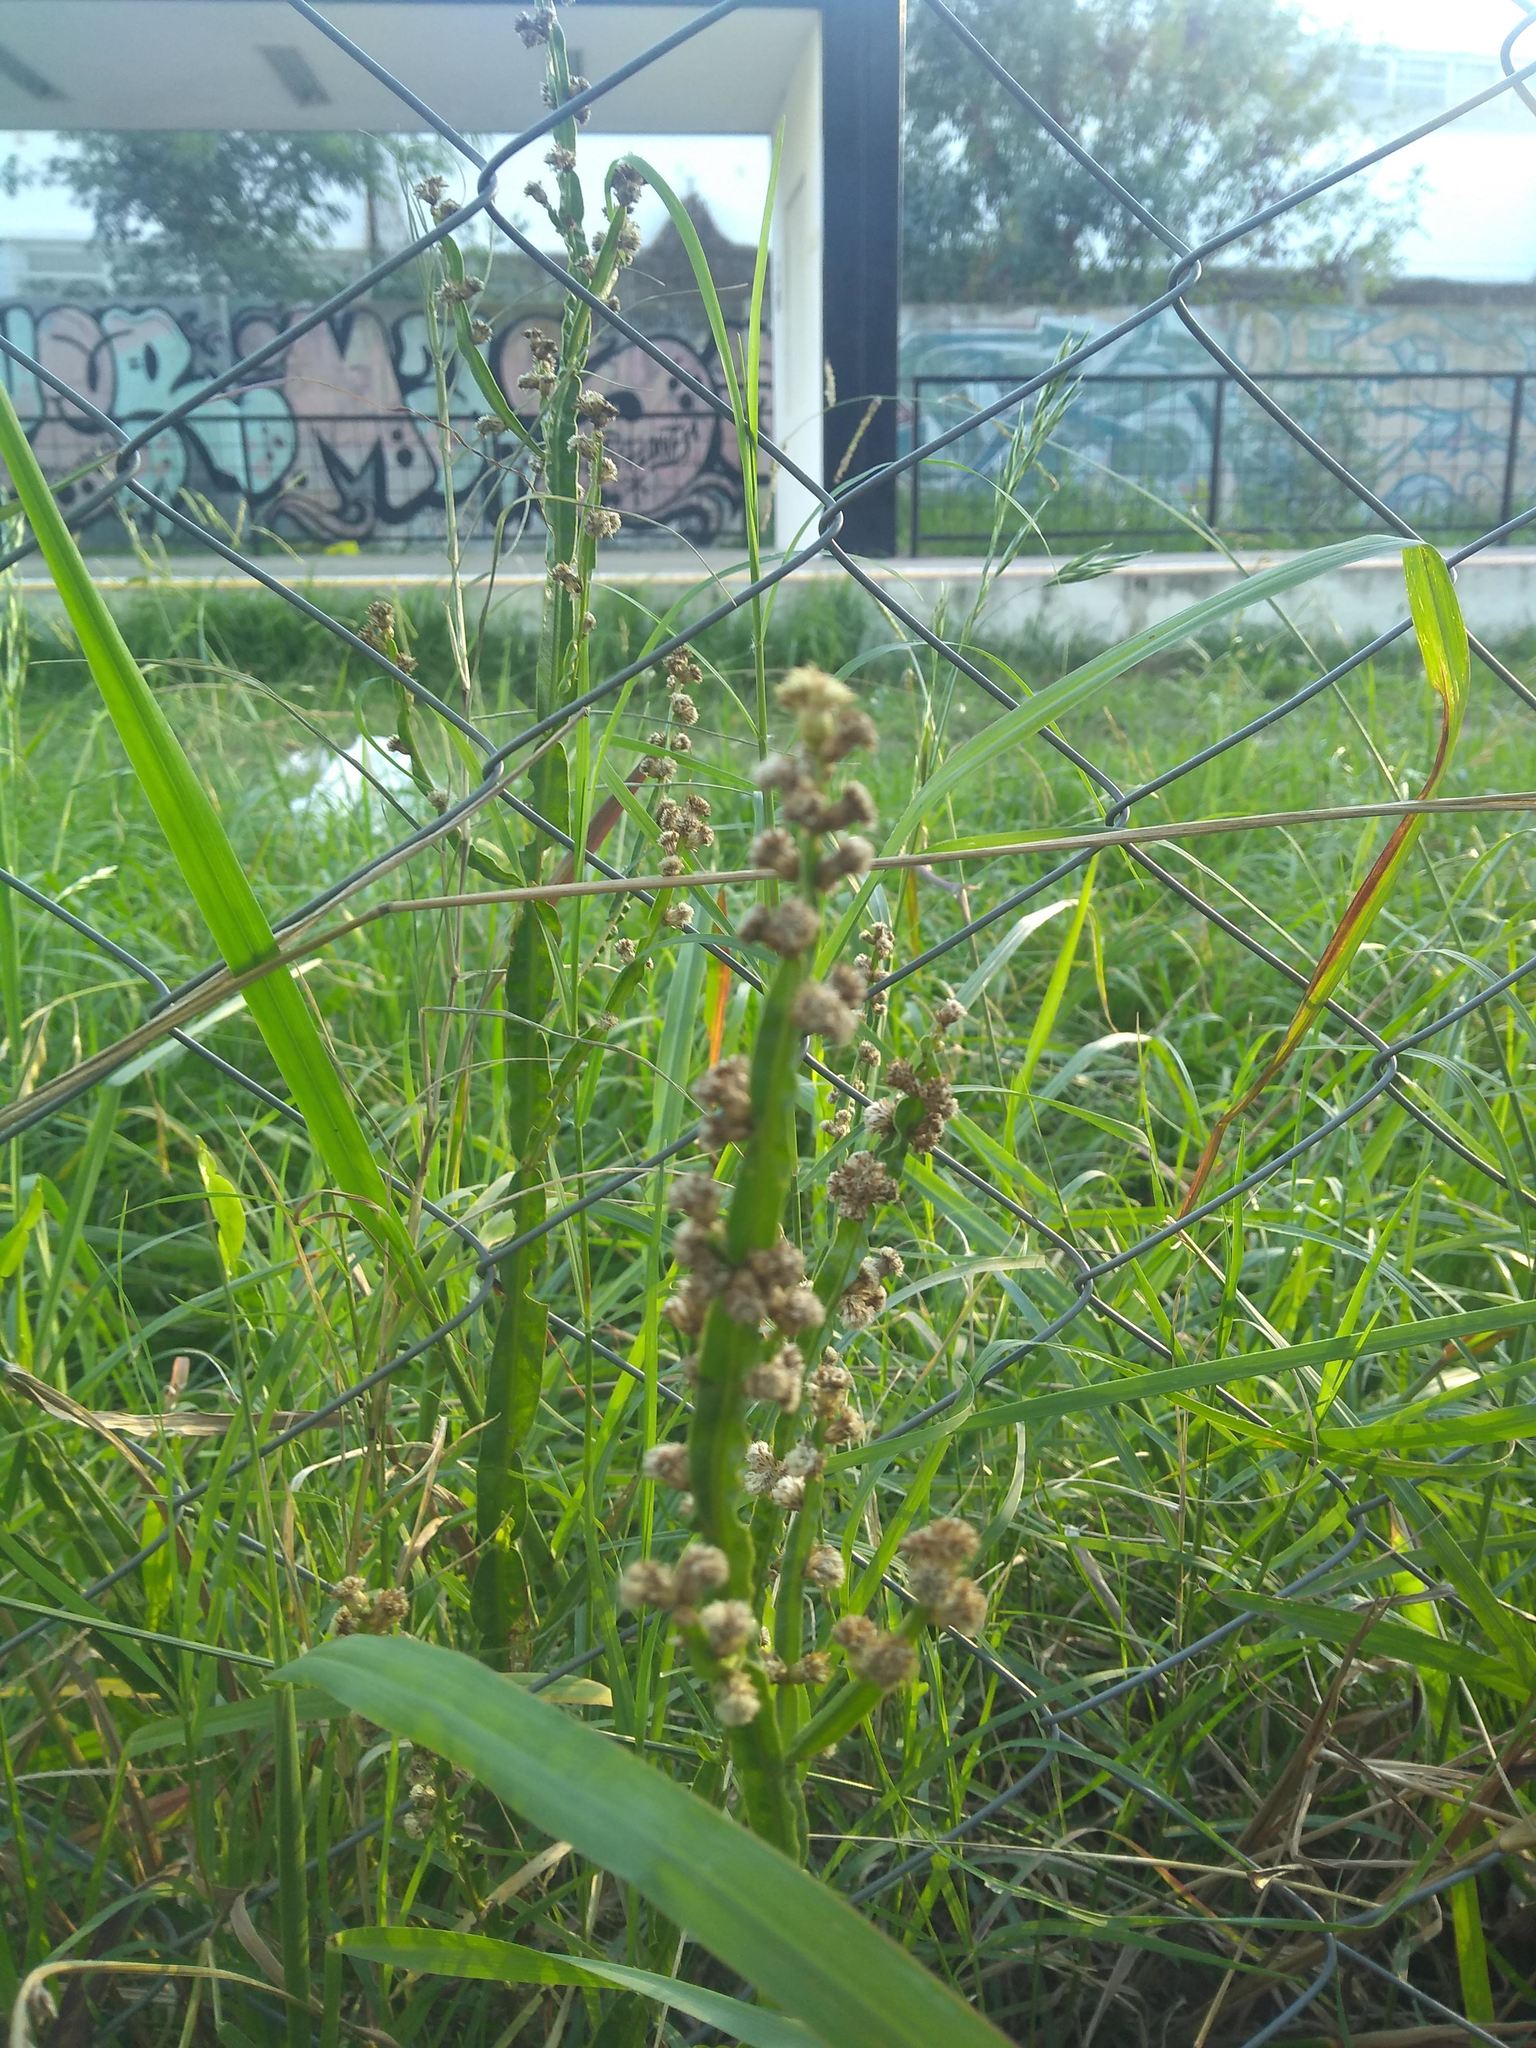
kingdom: Plantae
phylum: Tracheophyta
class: Magnoliopsida
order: Asterales
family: Asteraceae
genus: Baccharis
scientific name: Baccharis trimera
